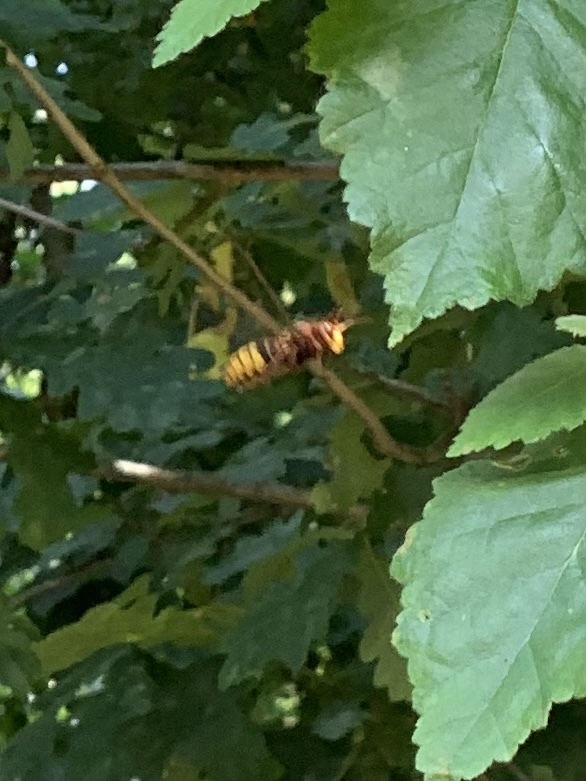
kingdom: Animalia
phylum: Arthropoda
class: Insecta
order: Hymenoptera
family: Vespidae
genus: Vespa
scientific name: Vespa crabro
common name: Hornet
